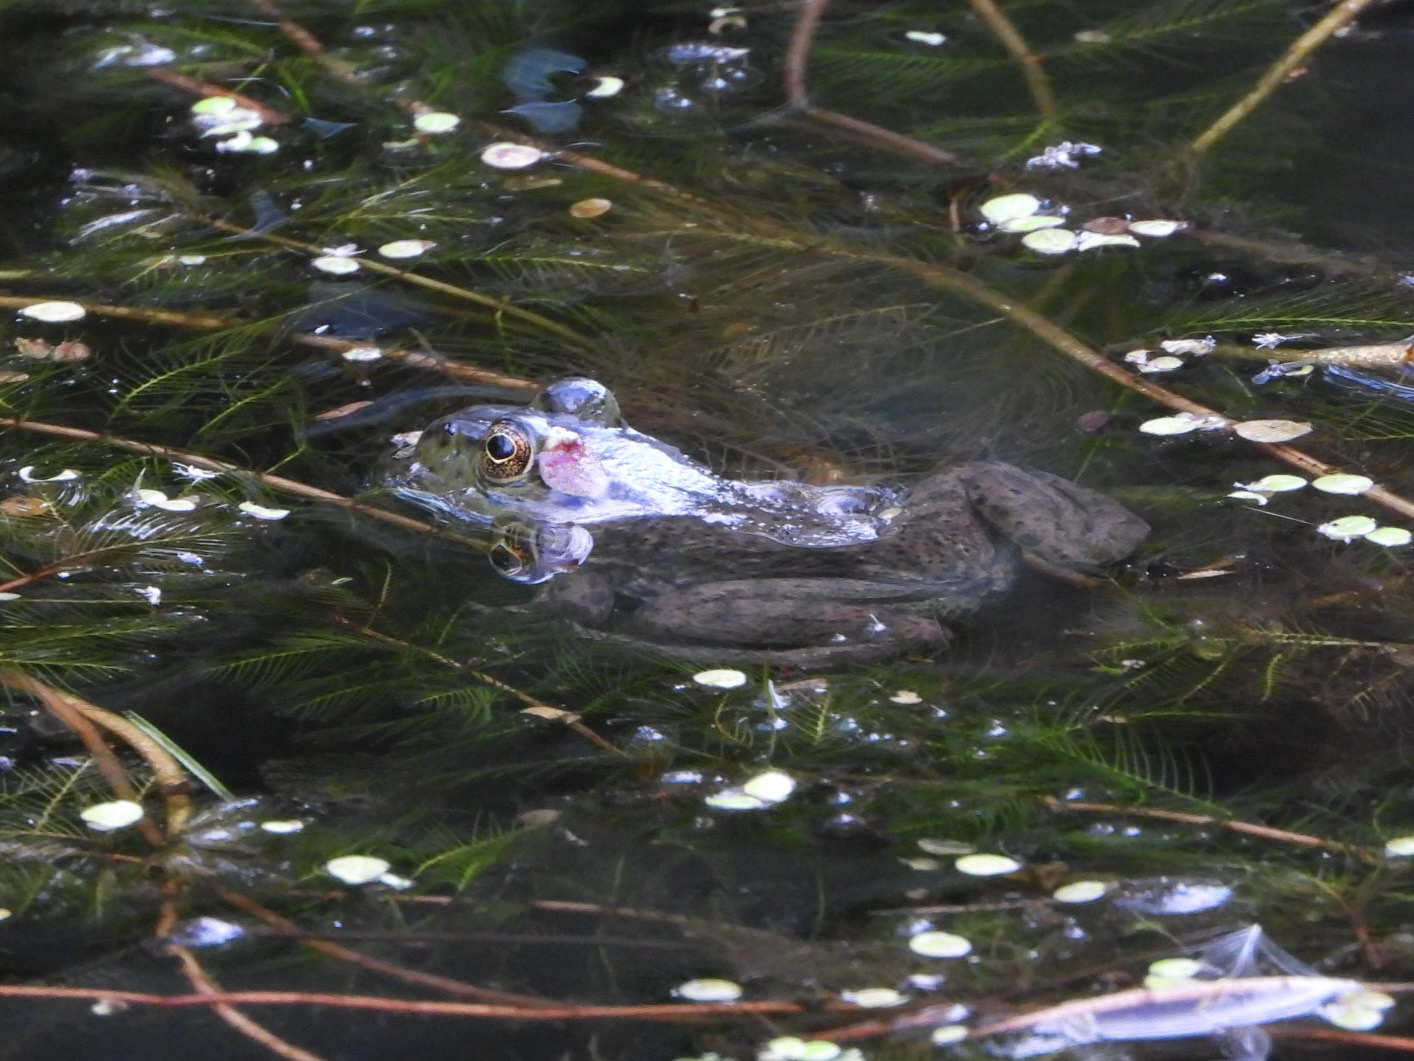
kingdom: Animalia
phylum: Chordata
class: Amphibia
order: Anura
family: Ranidae
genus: Lithobates
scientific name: Lithobates catesbeianus
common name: American bullfrog
